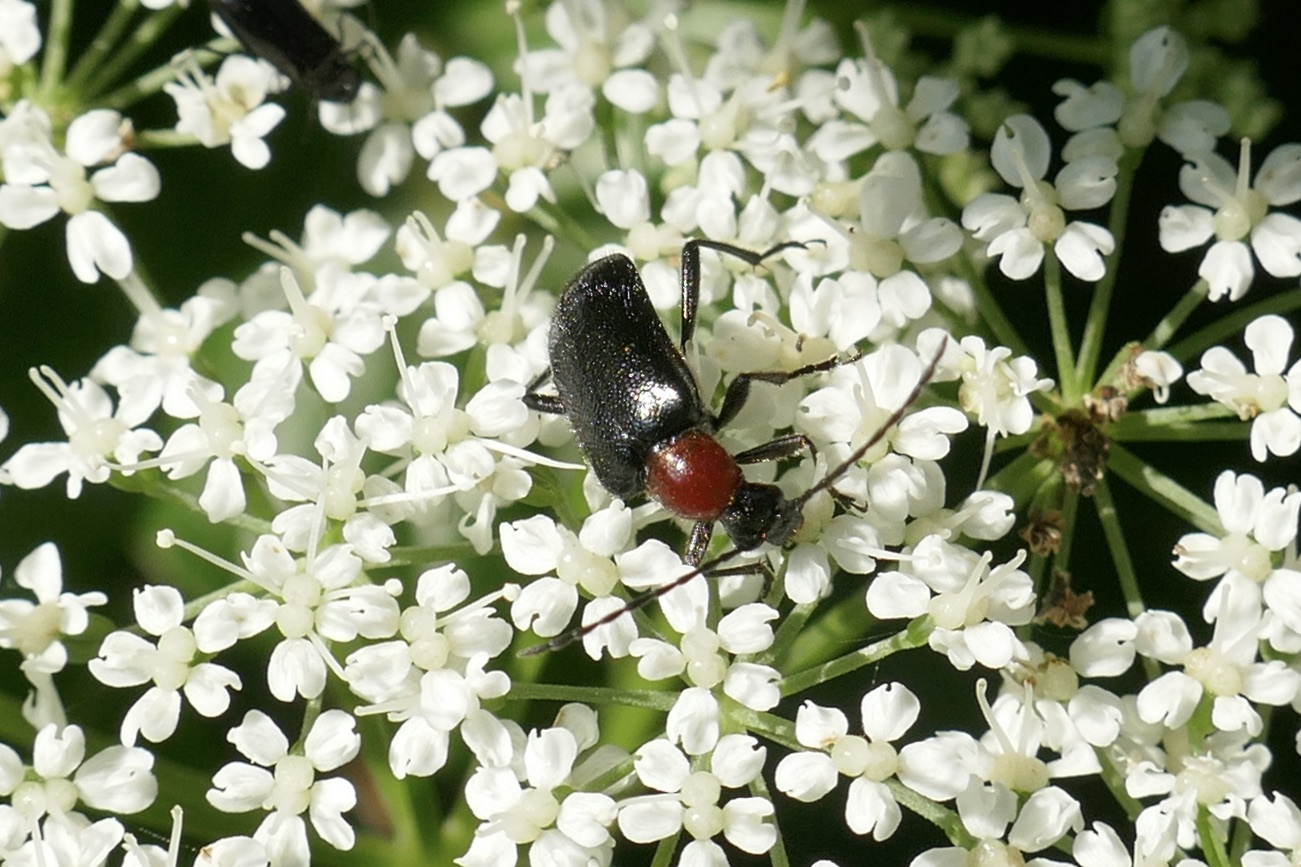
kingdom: Animalia
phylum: Arthropoda
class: Insecta
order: Coleoptera
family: Cerambycidae
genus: Dinoptera
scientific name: Dinoptera collaris
